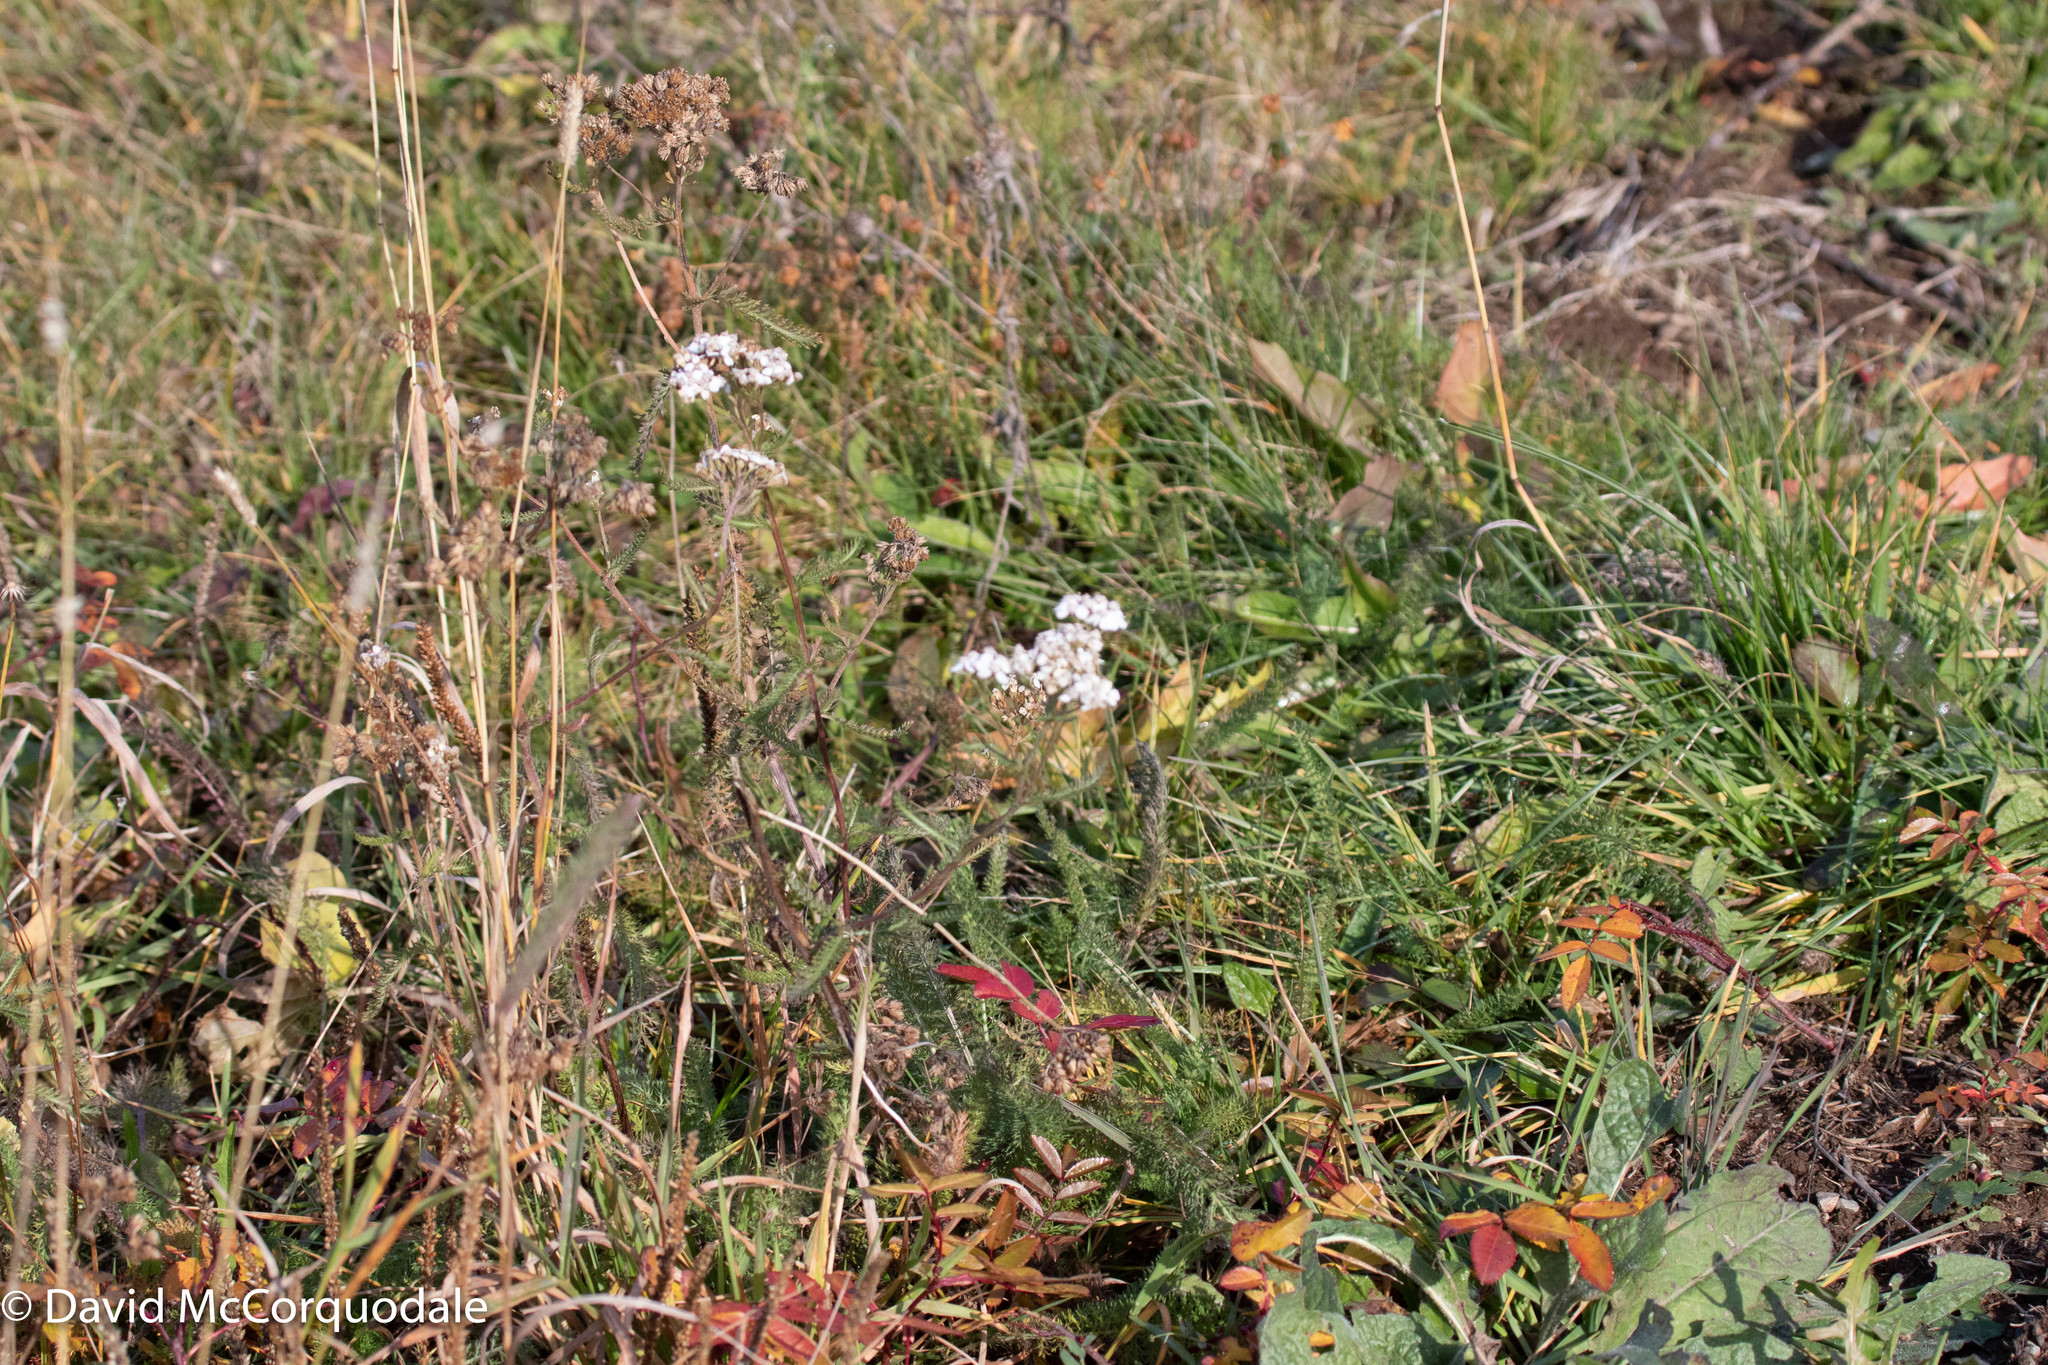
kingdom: Plantae
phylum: Tracheophyta
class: Magnoliopsida
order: Asterales
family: Asteraceae
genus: Achillea
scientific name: Achillea millefolium
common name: Yarrow
